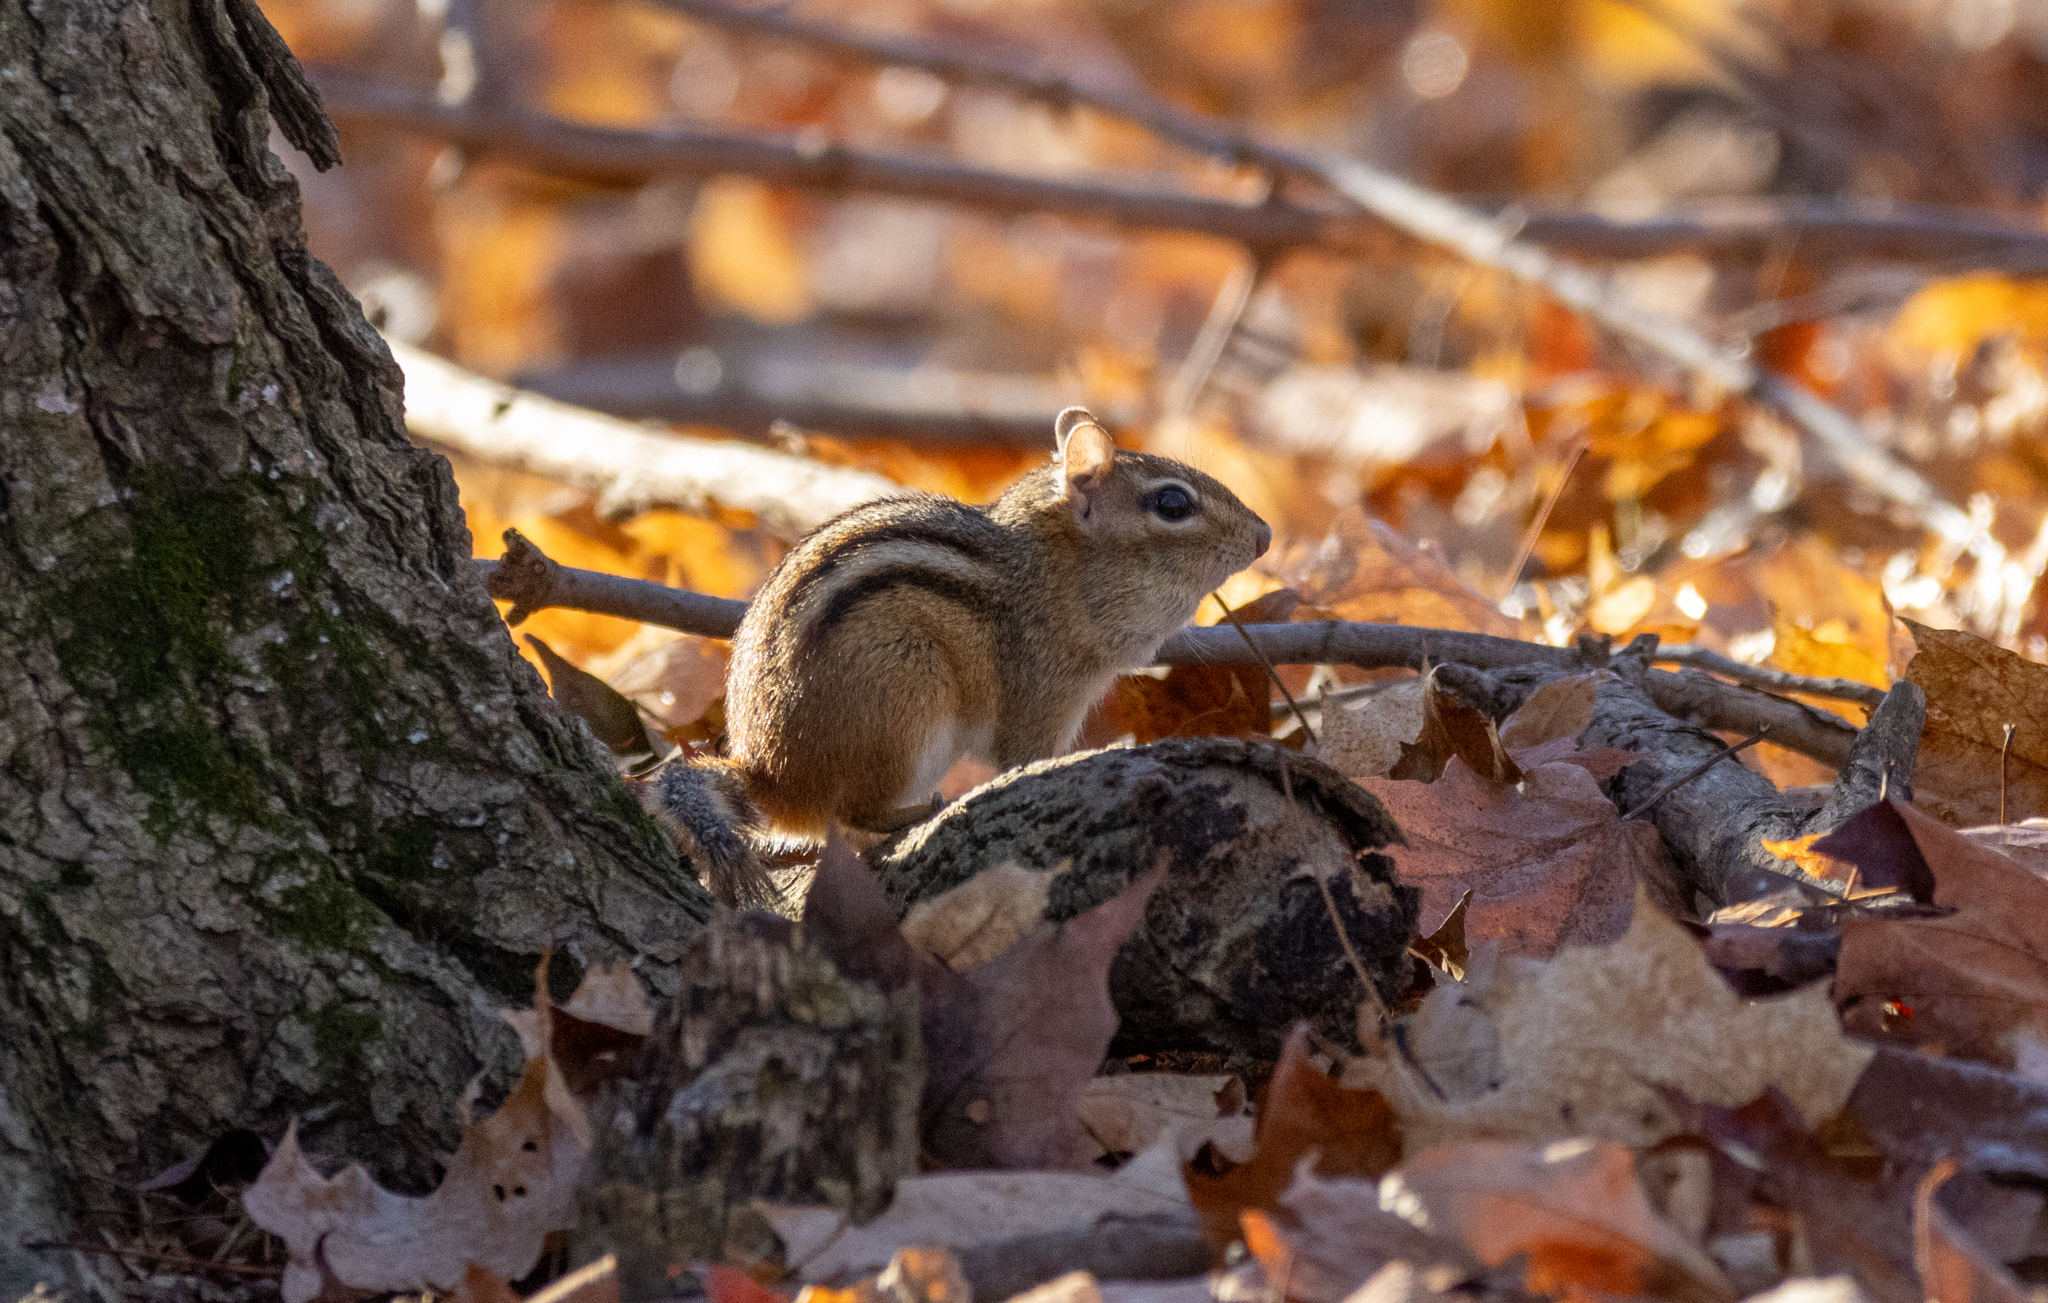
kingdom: Animalia
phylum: Chordata
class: Mammalia
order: Rodentia
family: Sciuridae
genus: Tamias
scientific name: Tamias striatus
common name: Eastern chipmunk
